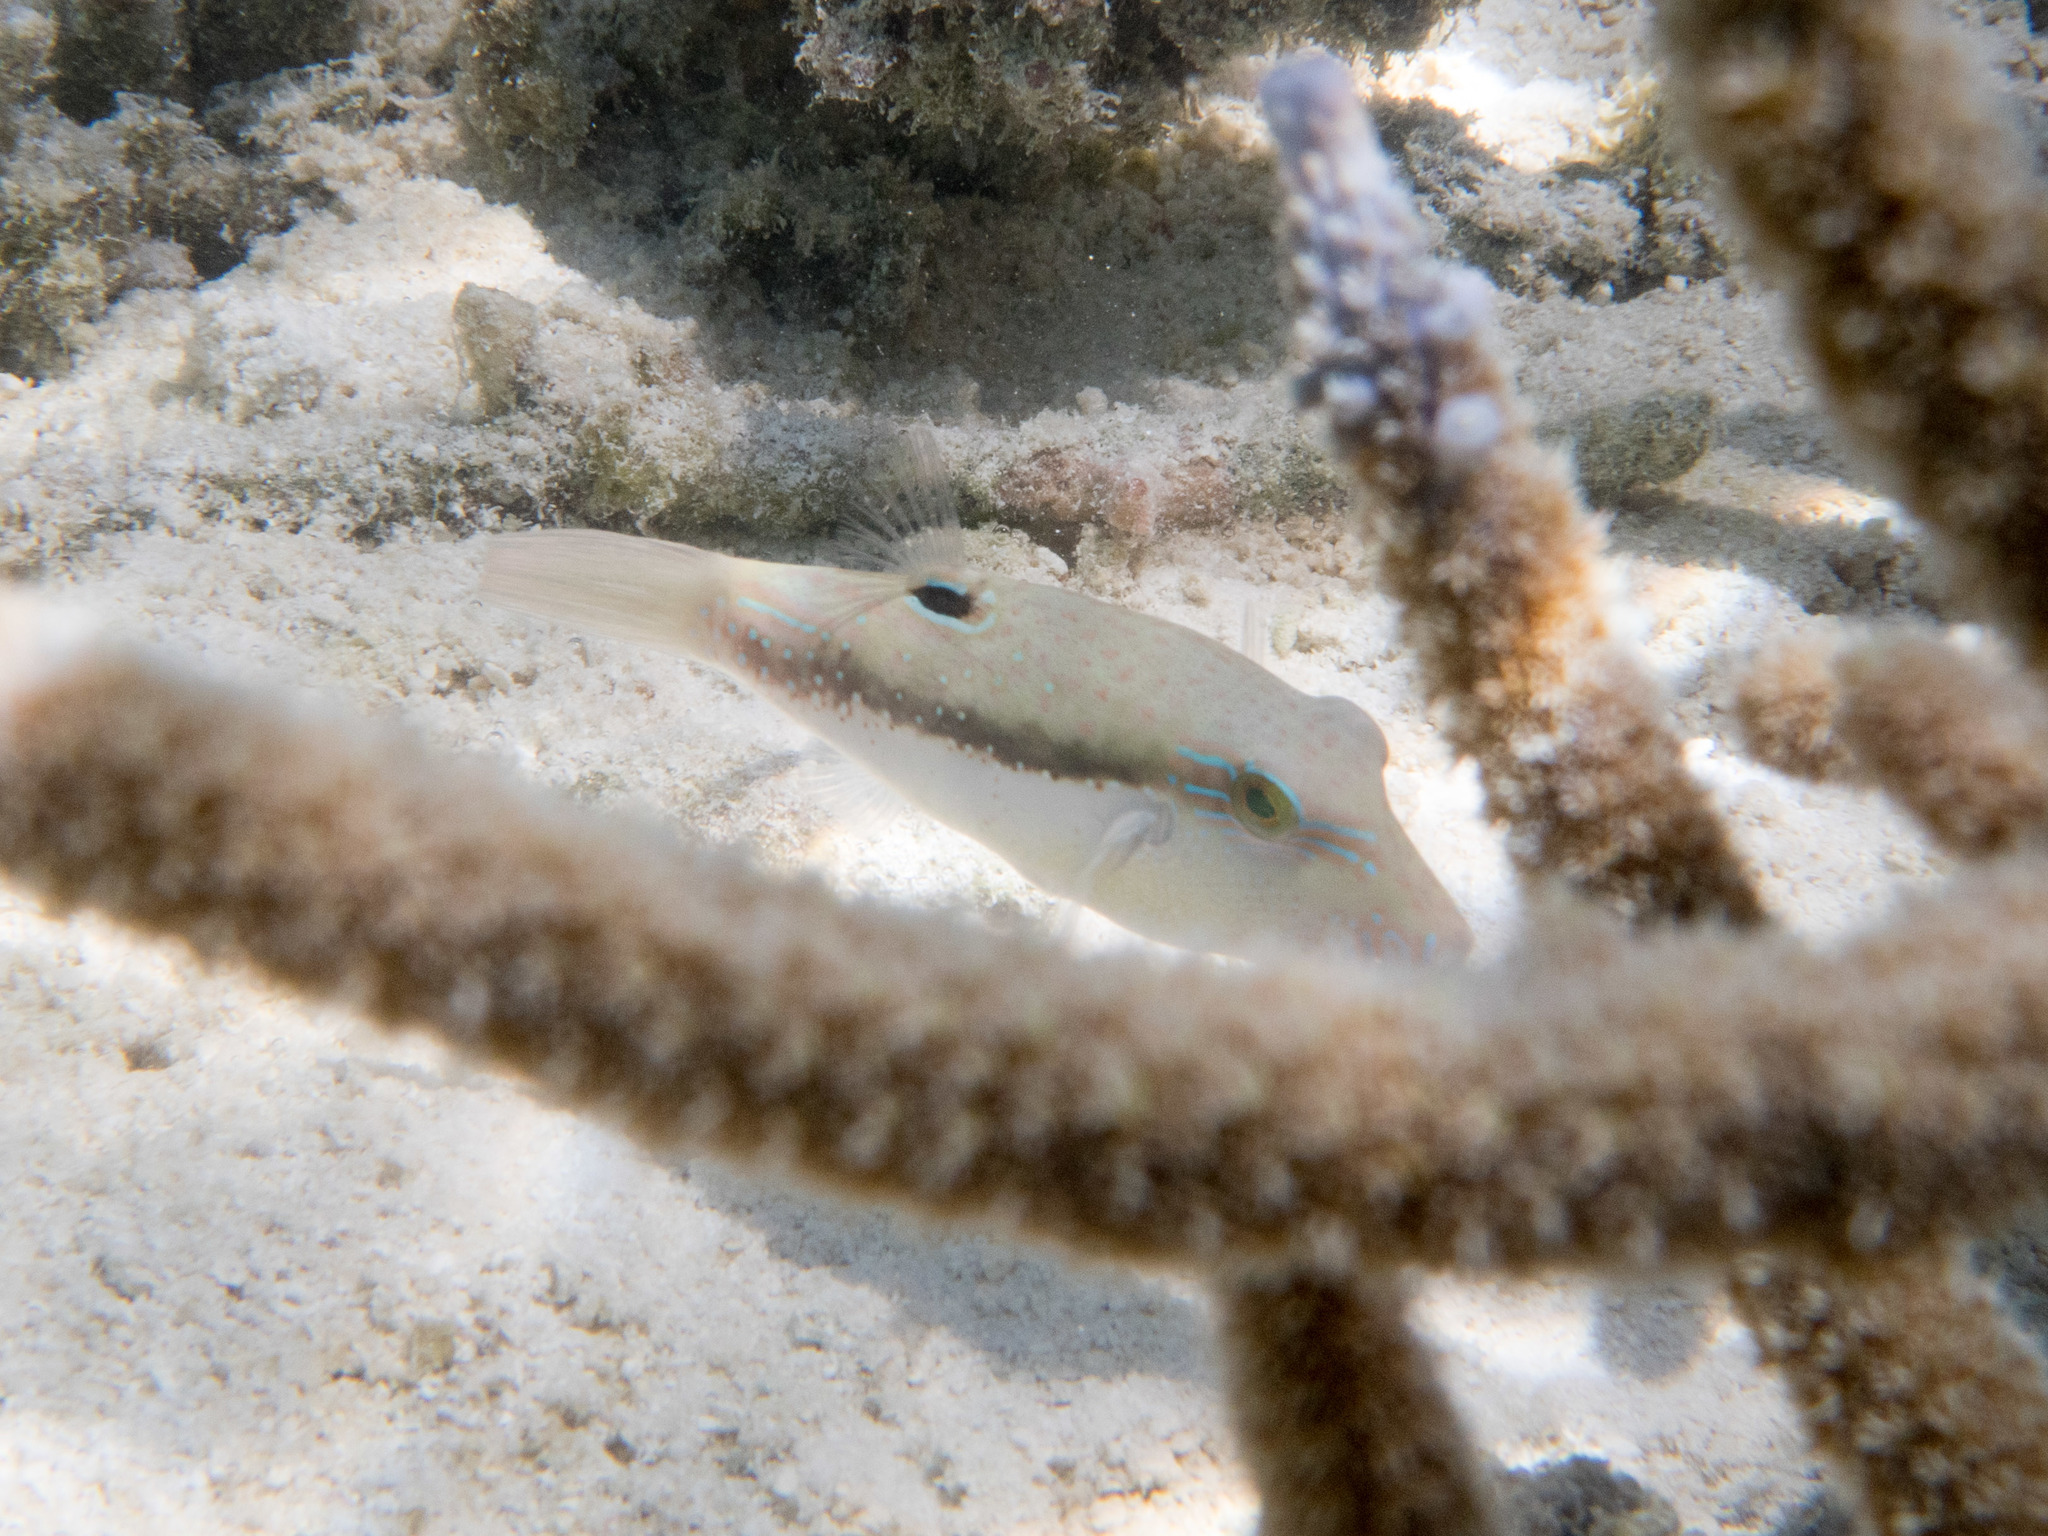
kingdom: Animalia
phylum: Chordata
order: Tetraodontiformes
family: Tetraodontidae
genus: Canthigaster
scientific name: Canthigaster bennetti
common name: Bennett's pufferfish
